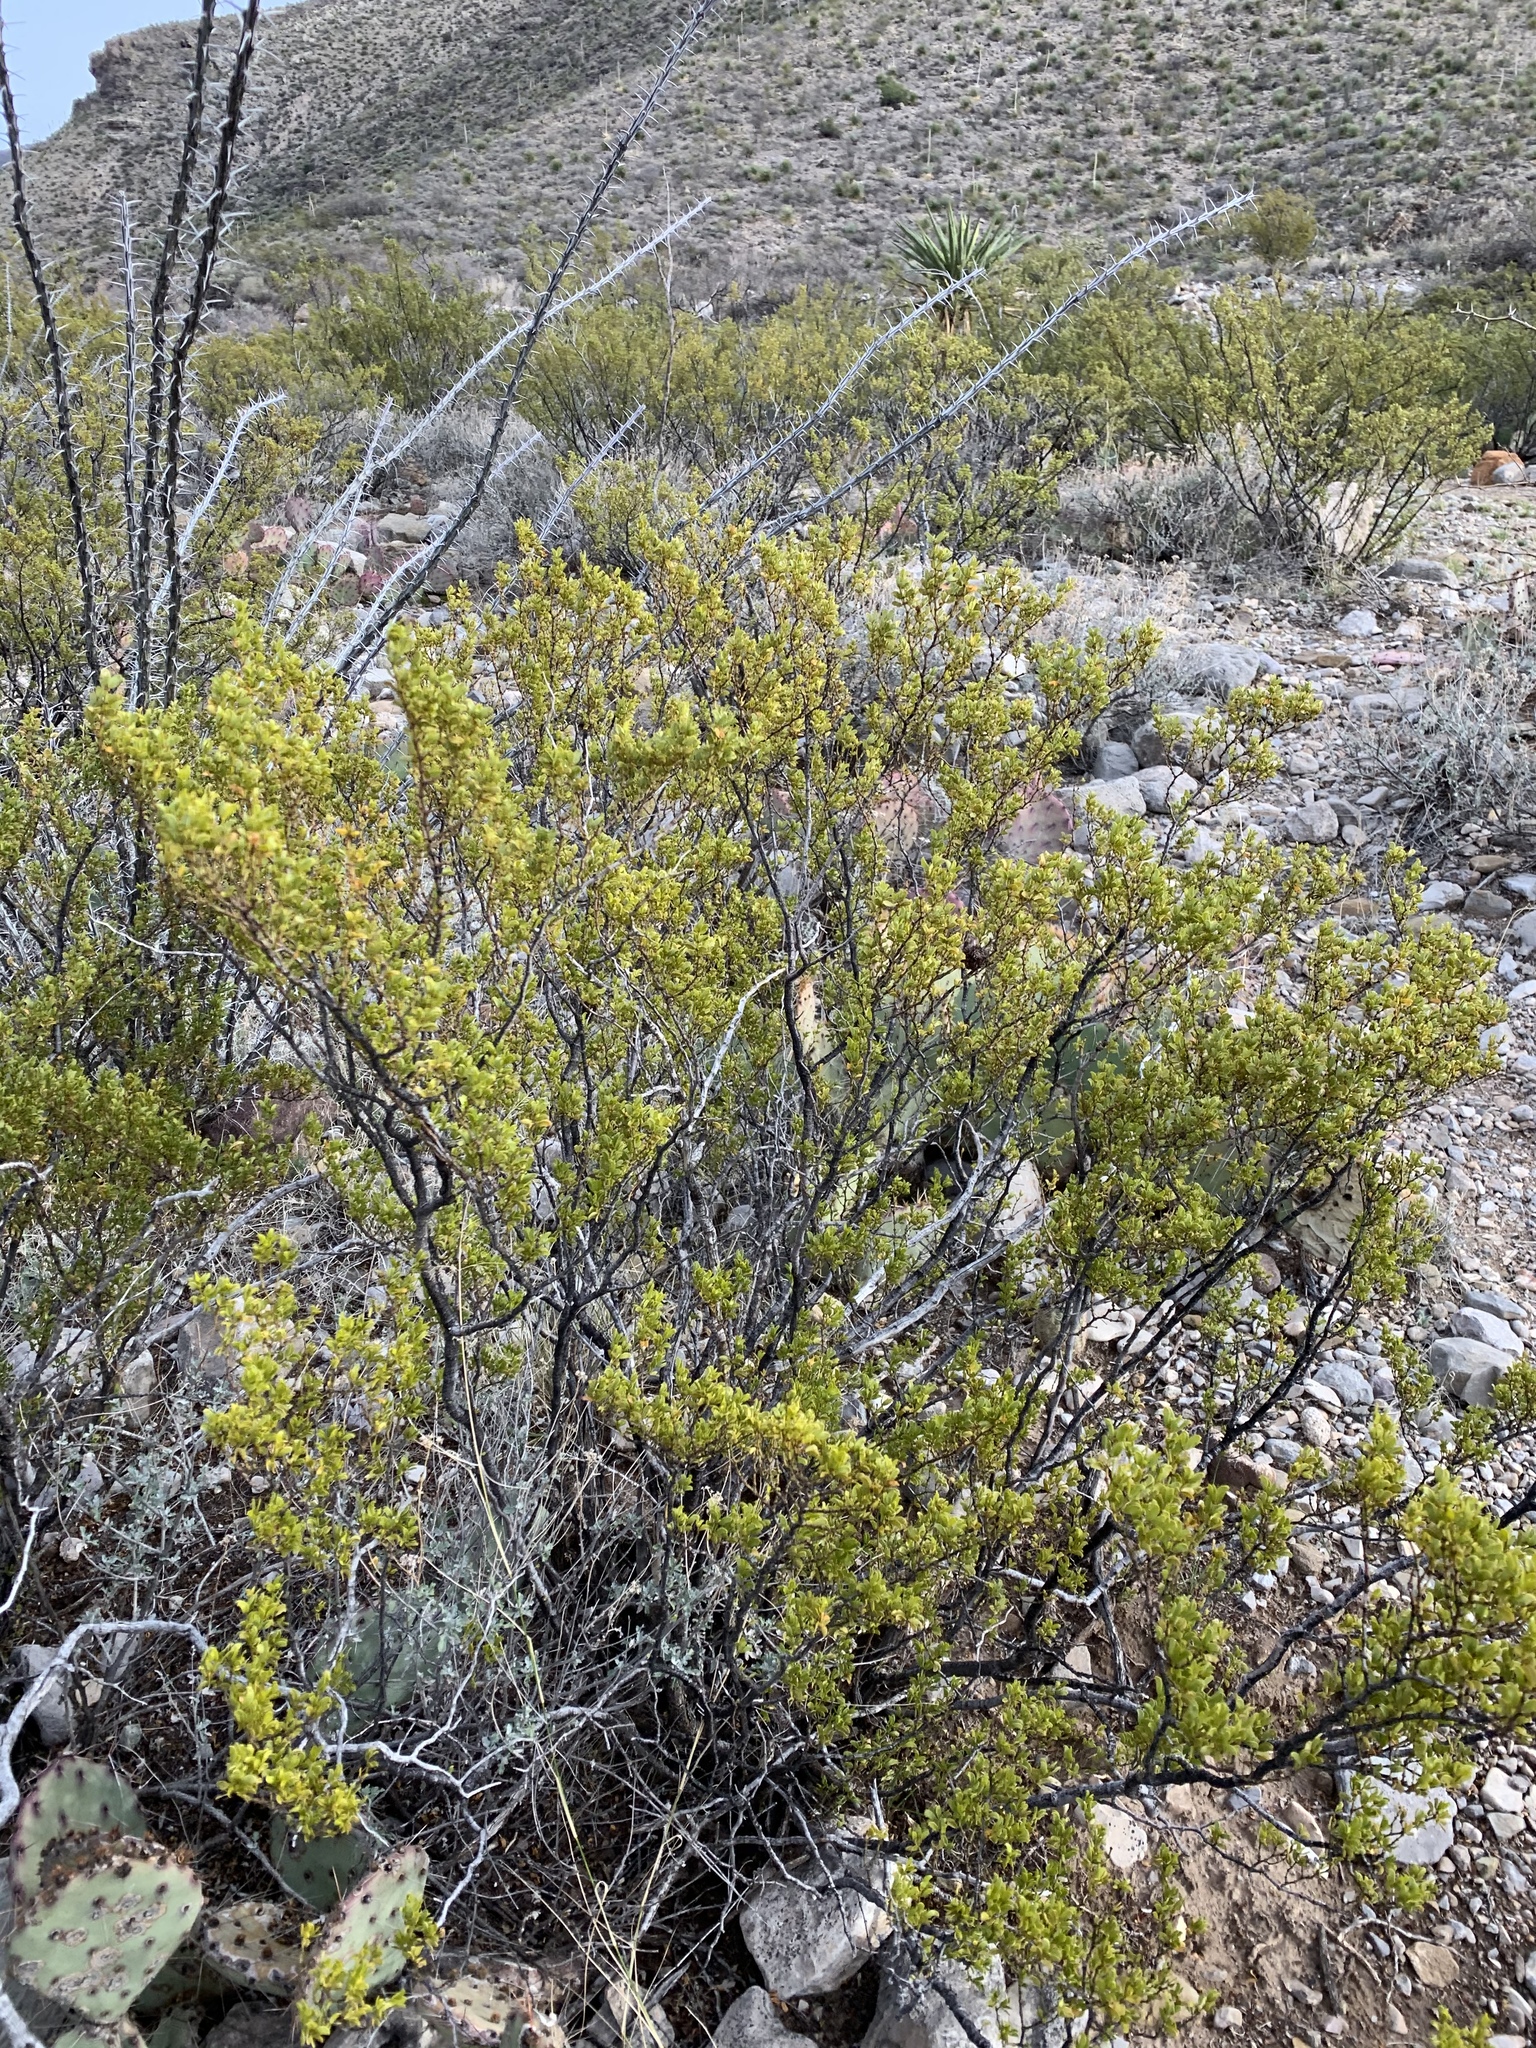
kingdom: Plantae
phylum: Tracheophyta
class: Magnoliopsida
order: Zygophyllales
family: Zygophyllaceae
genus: Larrea
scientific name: Larrea tridentata
